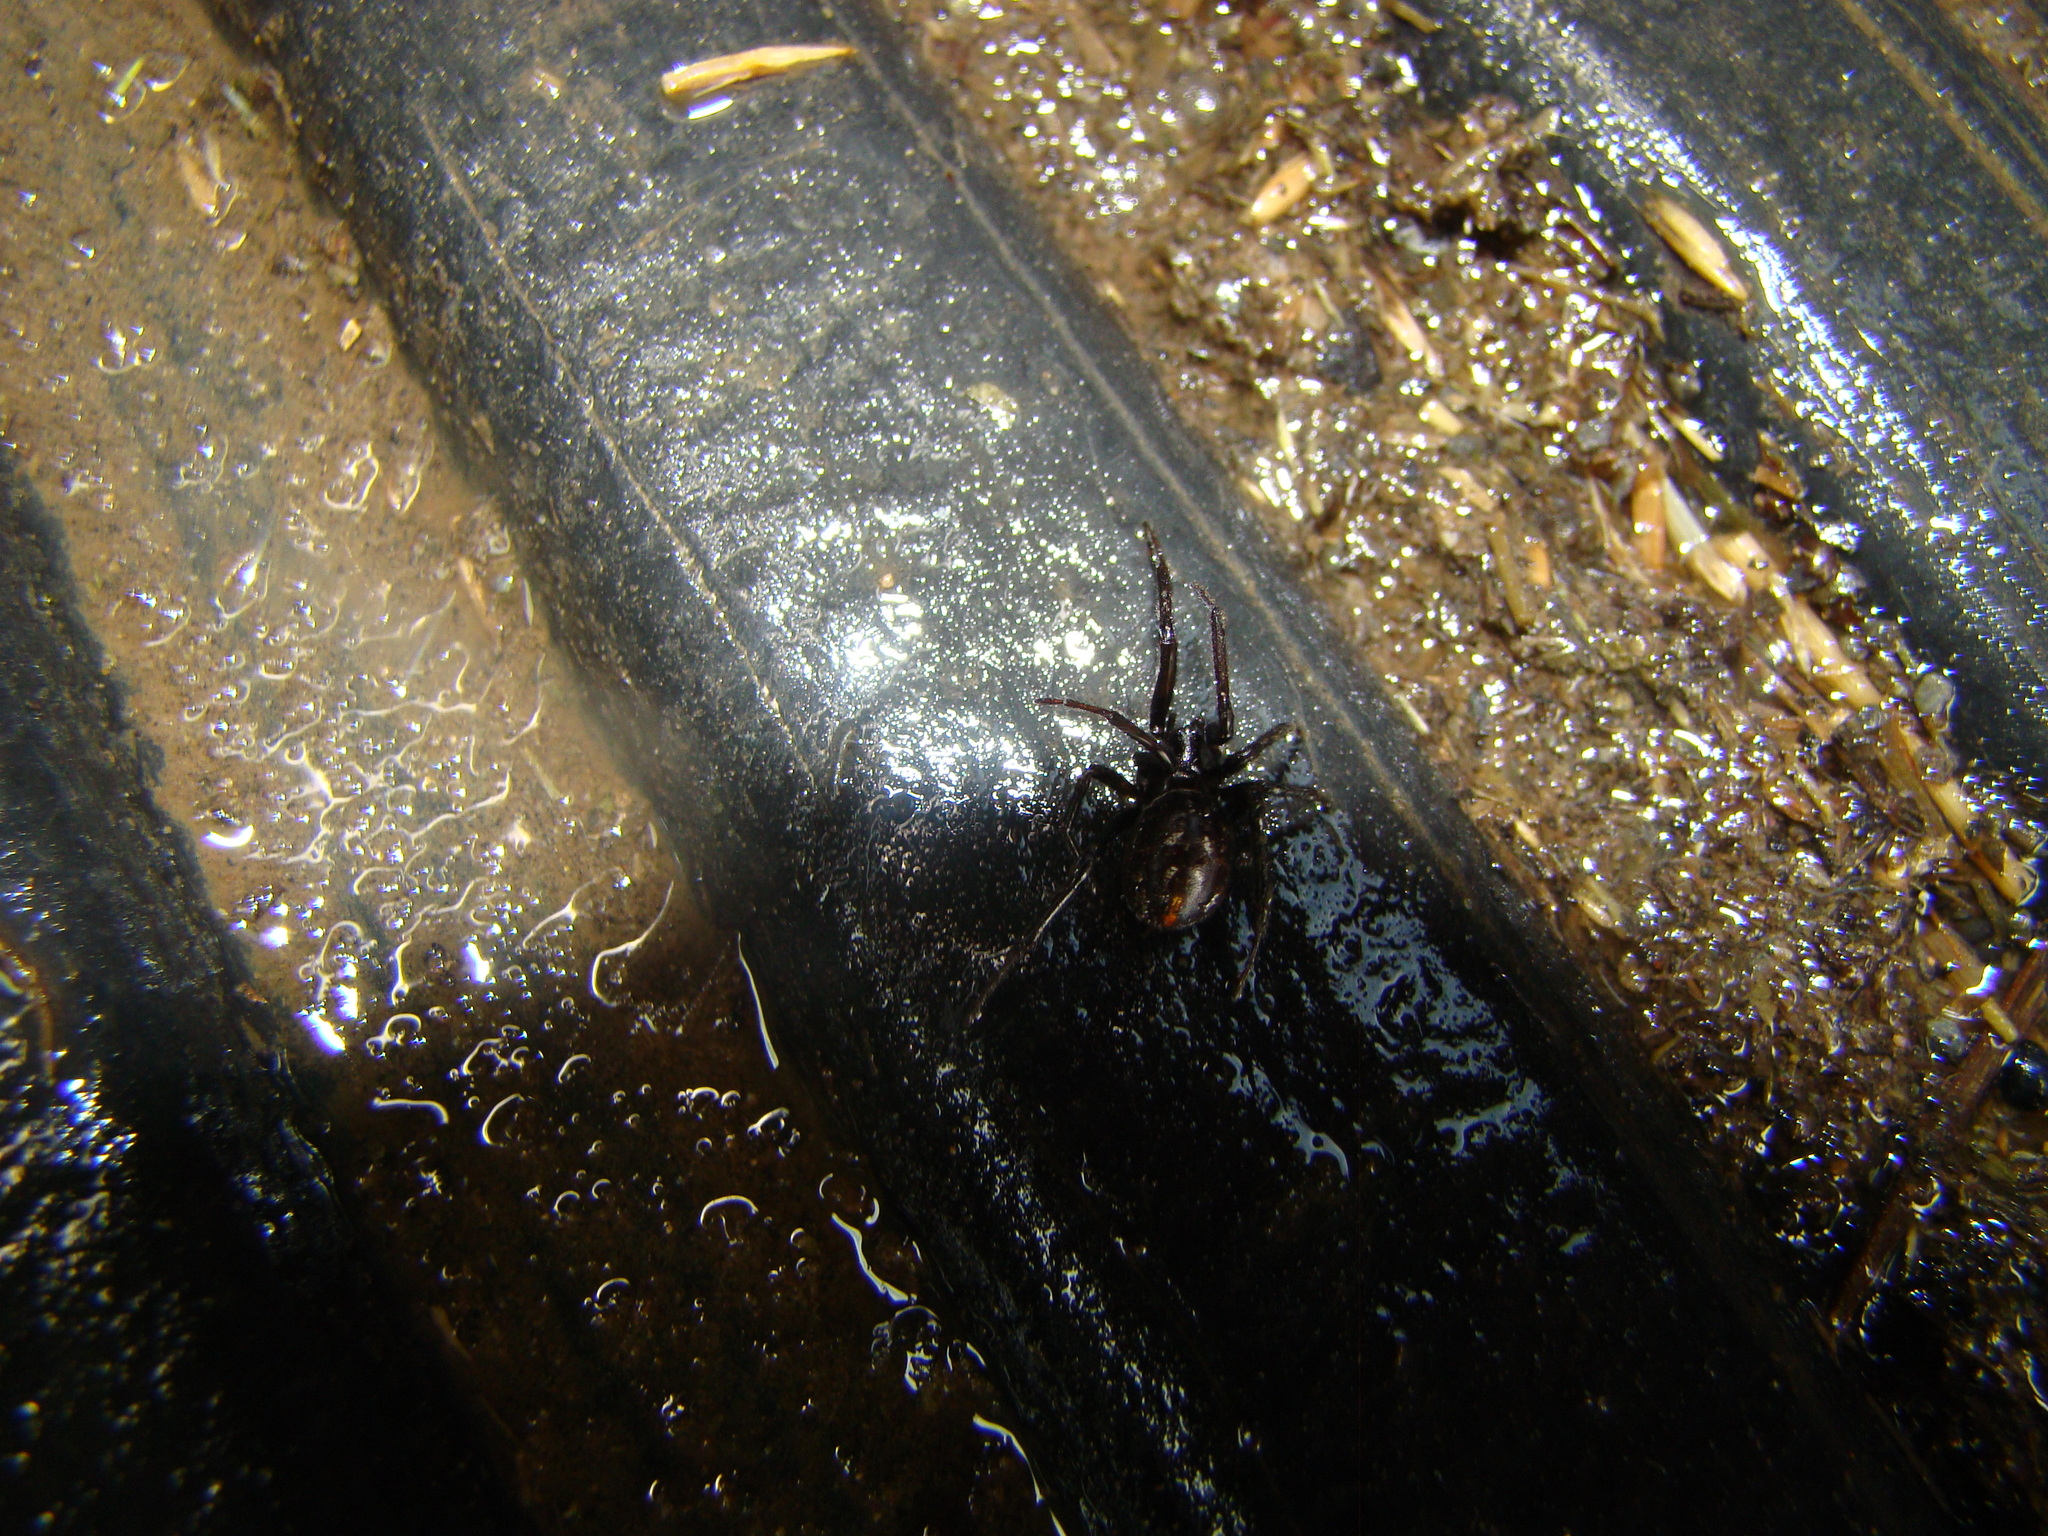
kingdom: Animalia
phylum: Arthropoda
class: Arachnida
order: Araneae
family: Theridiidae
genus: Steatoda
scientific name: Steatoda capensis
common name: Cobweb weaver
